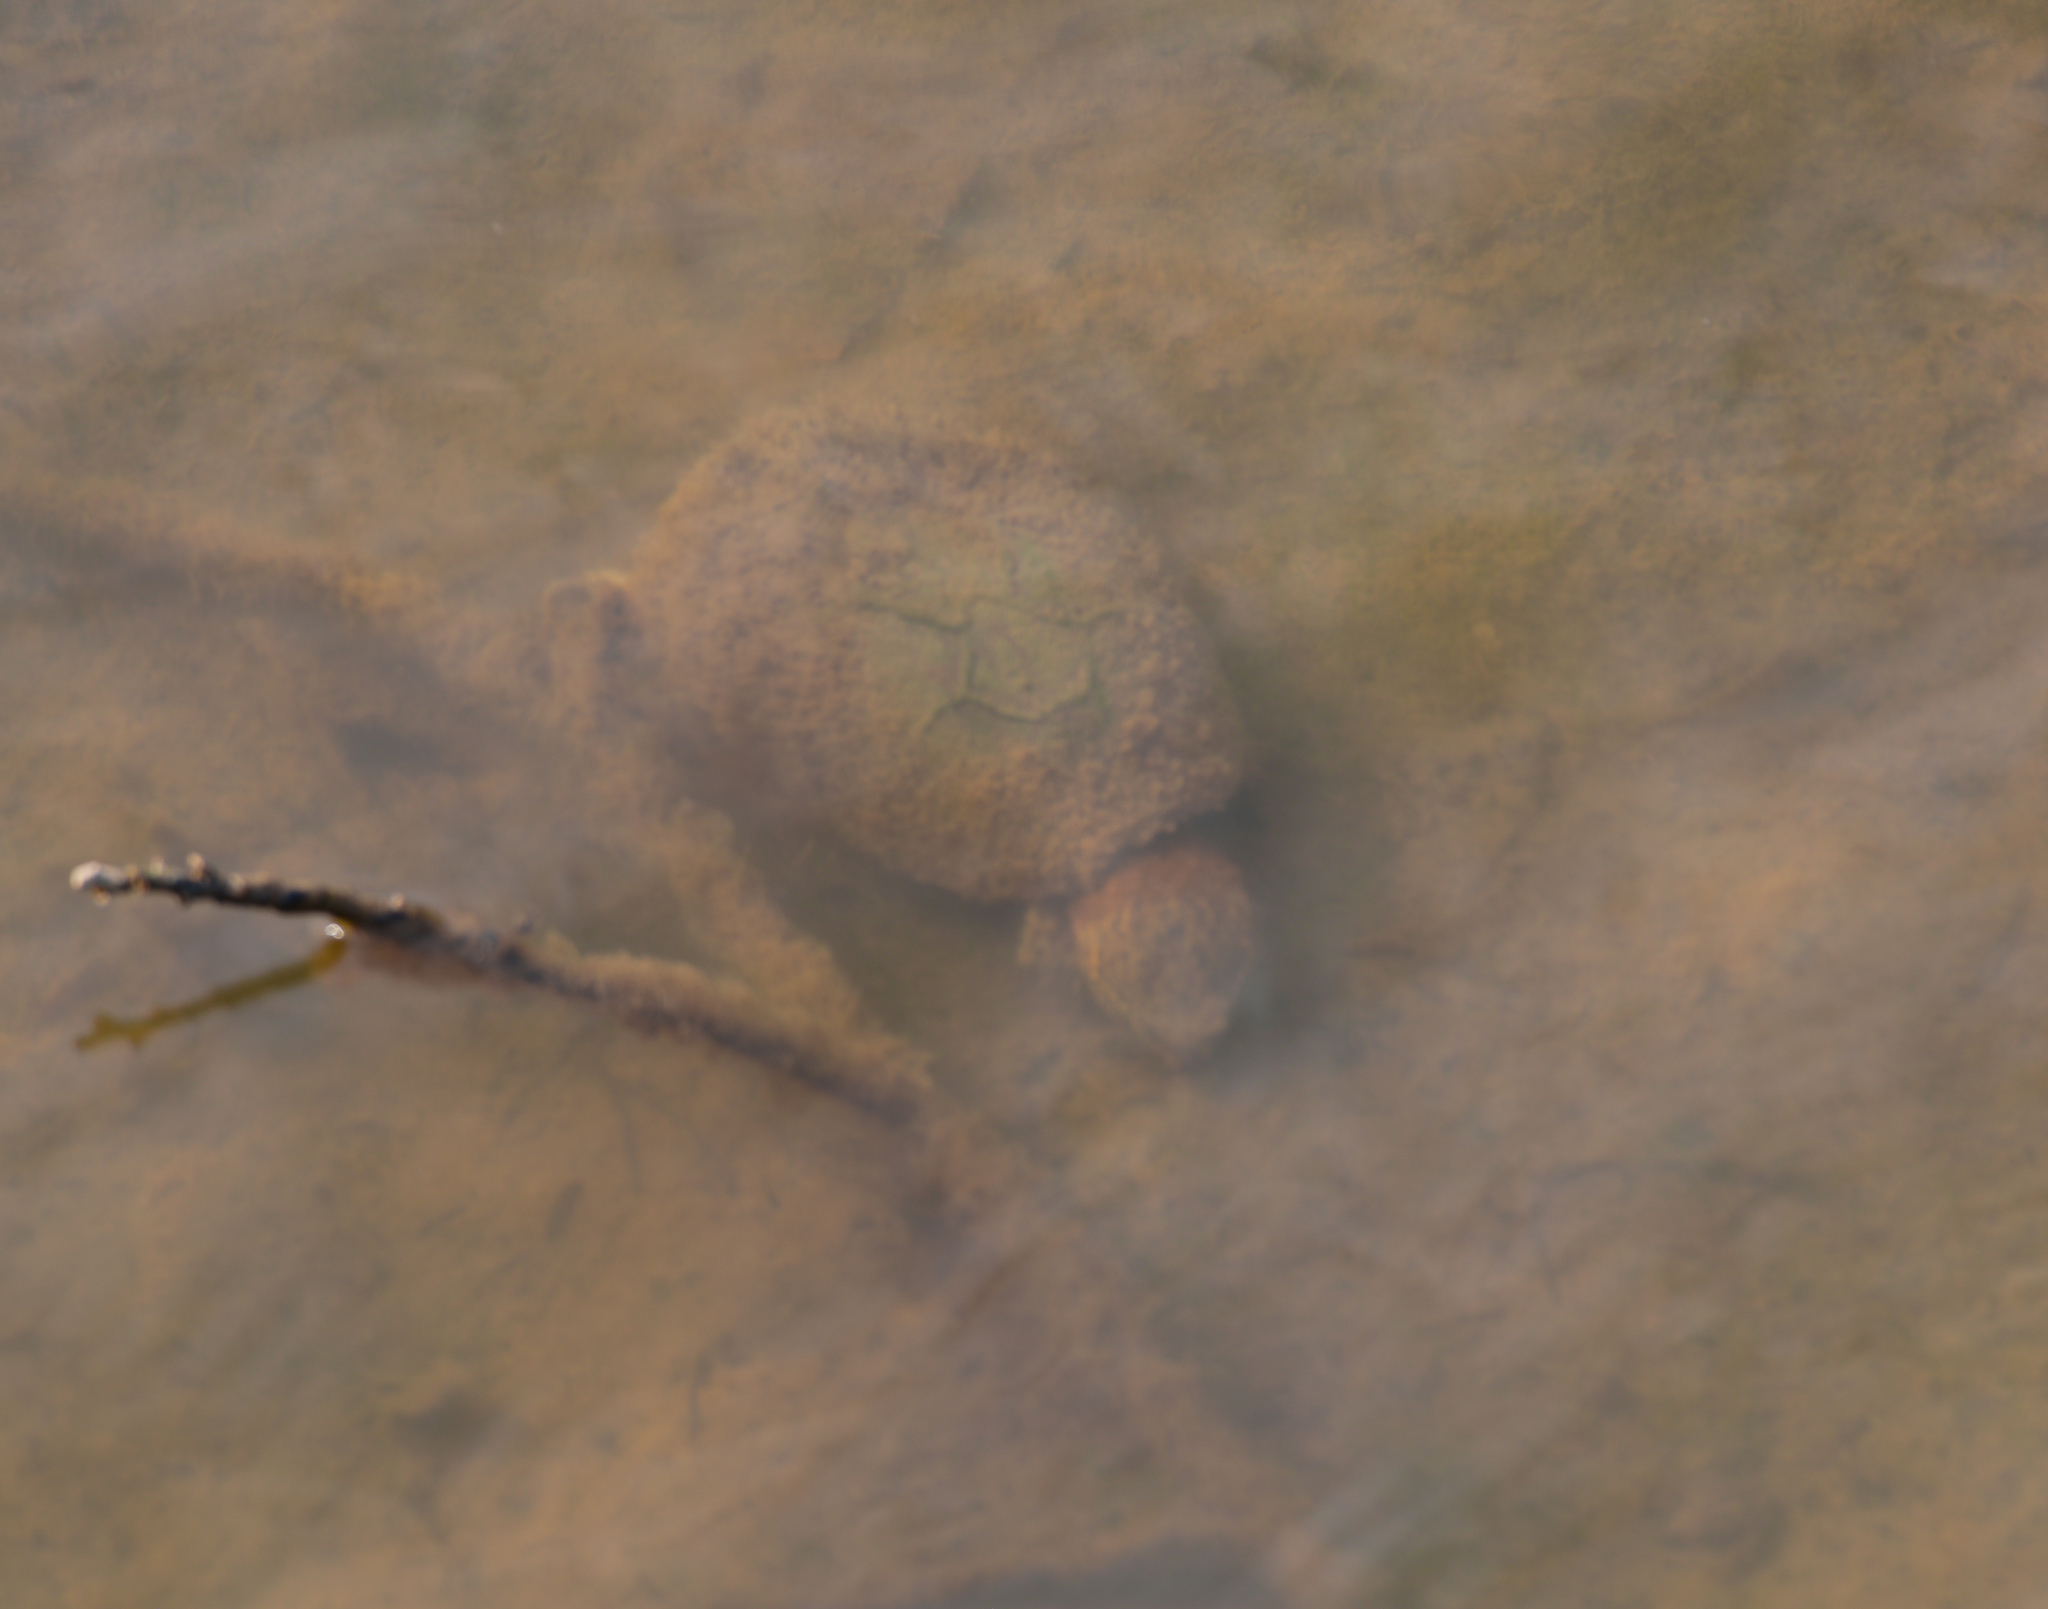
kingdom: Animalia
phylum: Chordata
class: Testudines
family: Kinosternidae
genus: Sternotherus
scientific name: Sternotherus odoratus
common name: Common musk turtle
